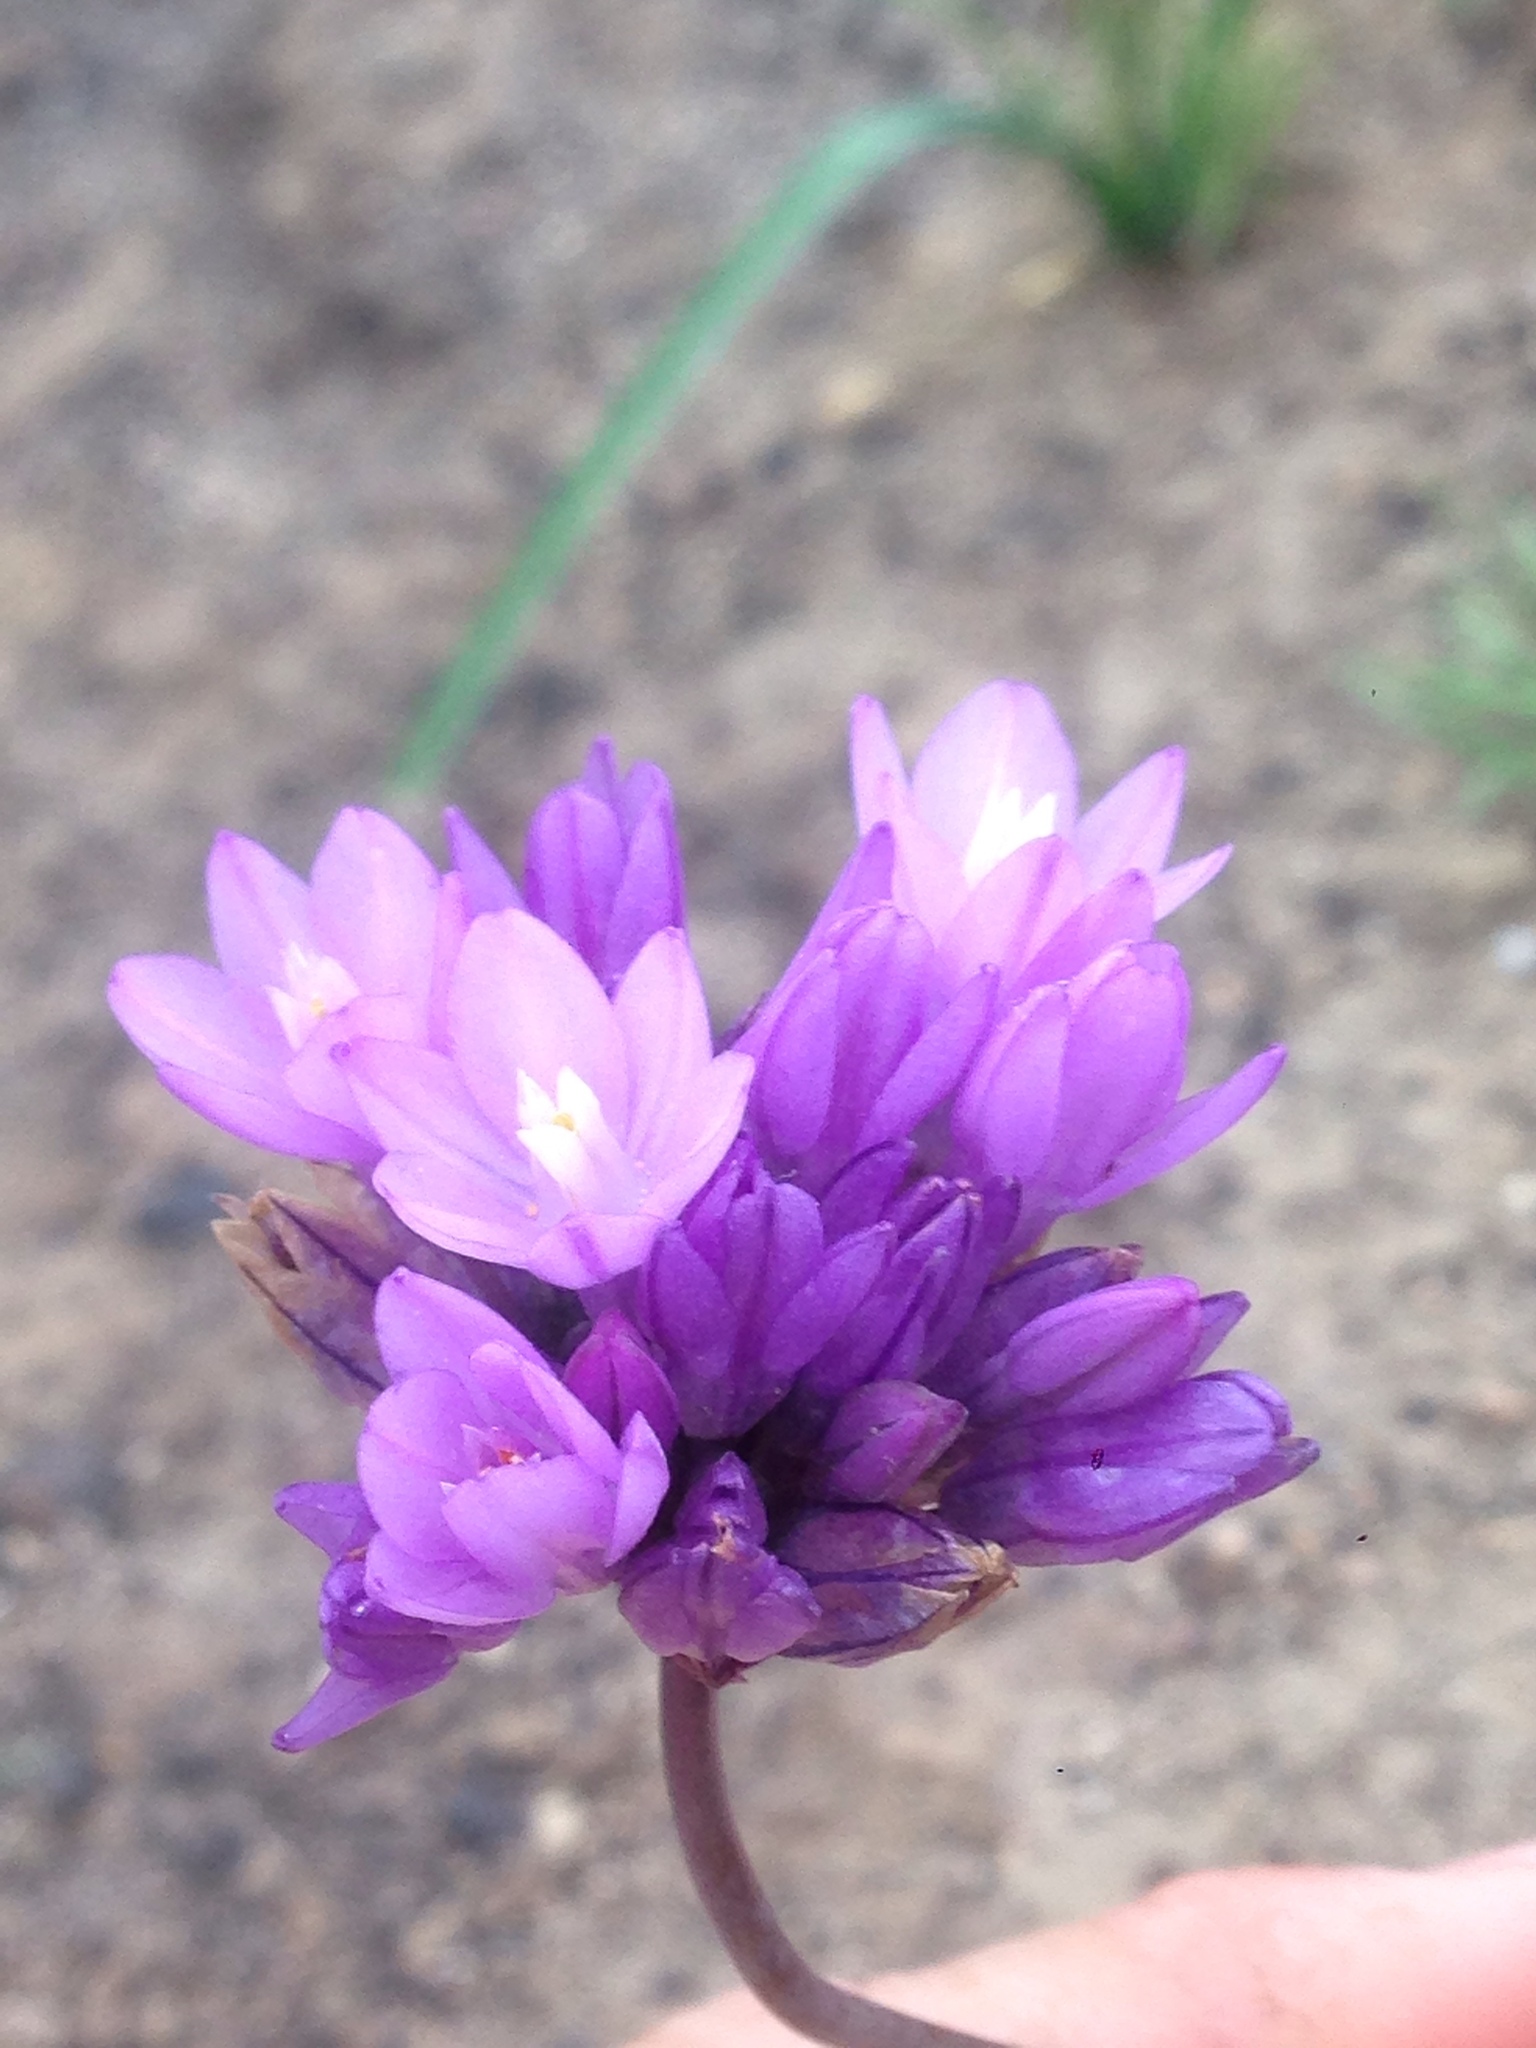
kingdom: Plantae
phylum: Tracheophyta
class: Liliopsida
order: Asparagales
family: Asparagaceae
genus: Dipterostemon
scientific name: Dipterostemon capitatus
